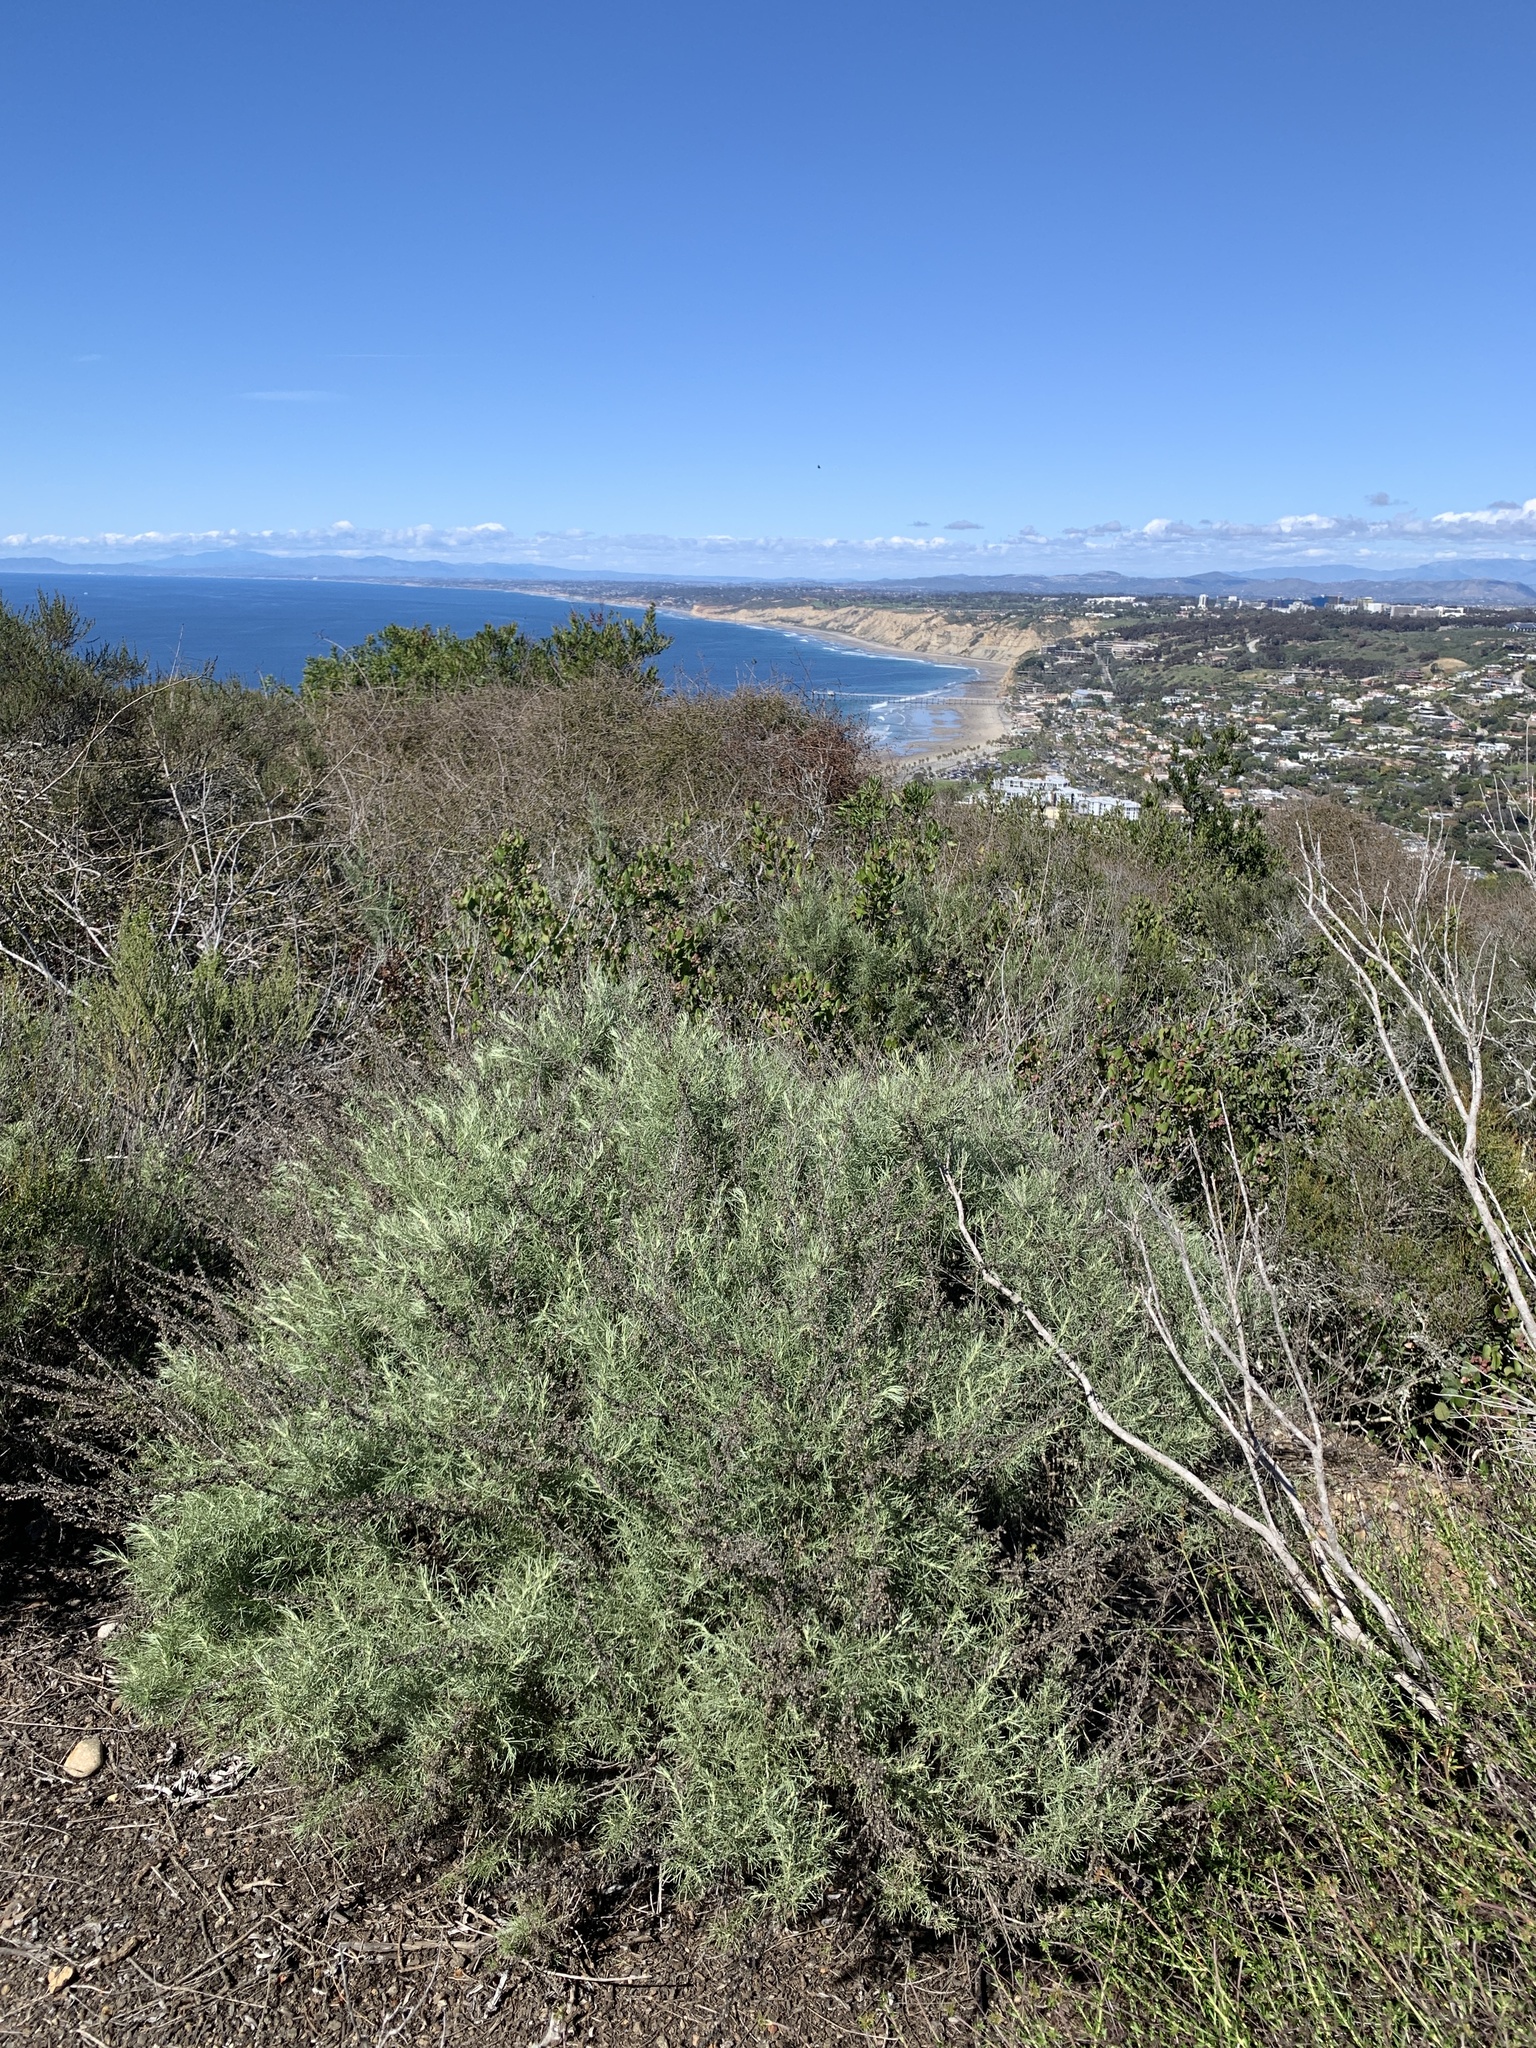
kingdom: Plantae
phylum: Tracheophyta
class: Magnoliopsida
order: Asterales
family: Asteraceae
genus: Artemisia
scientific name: Artemisia californica
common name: California sagebrush
